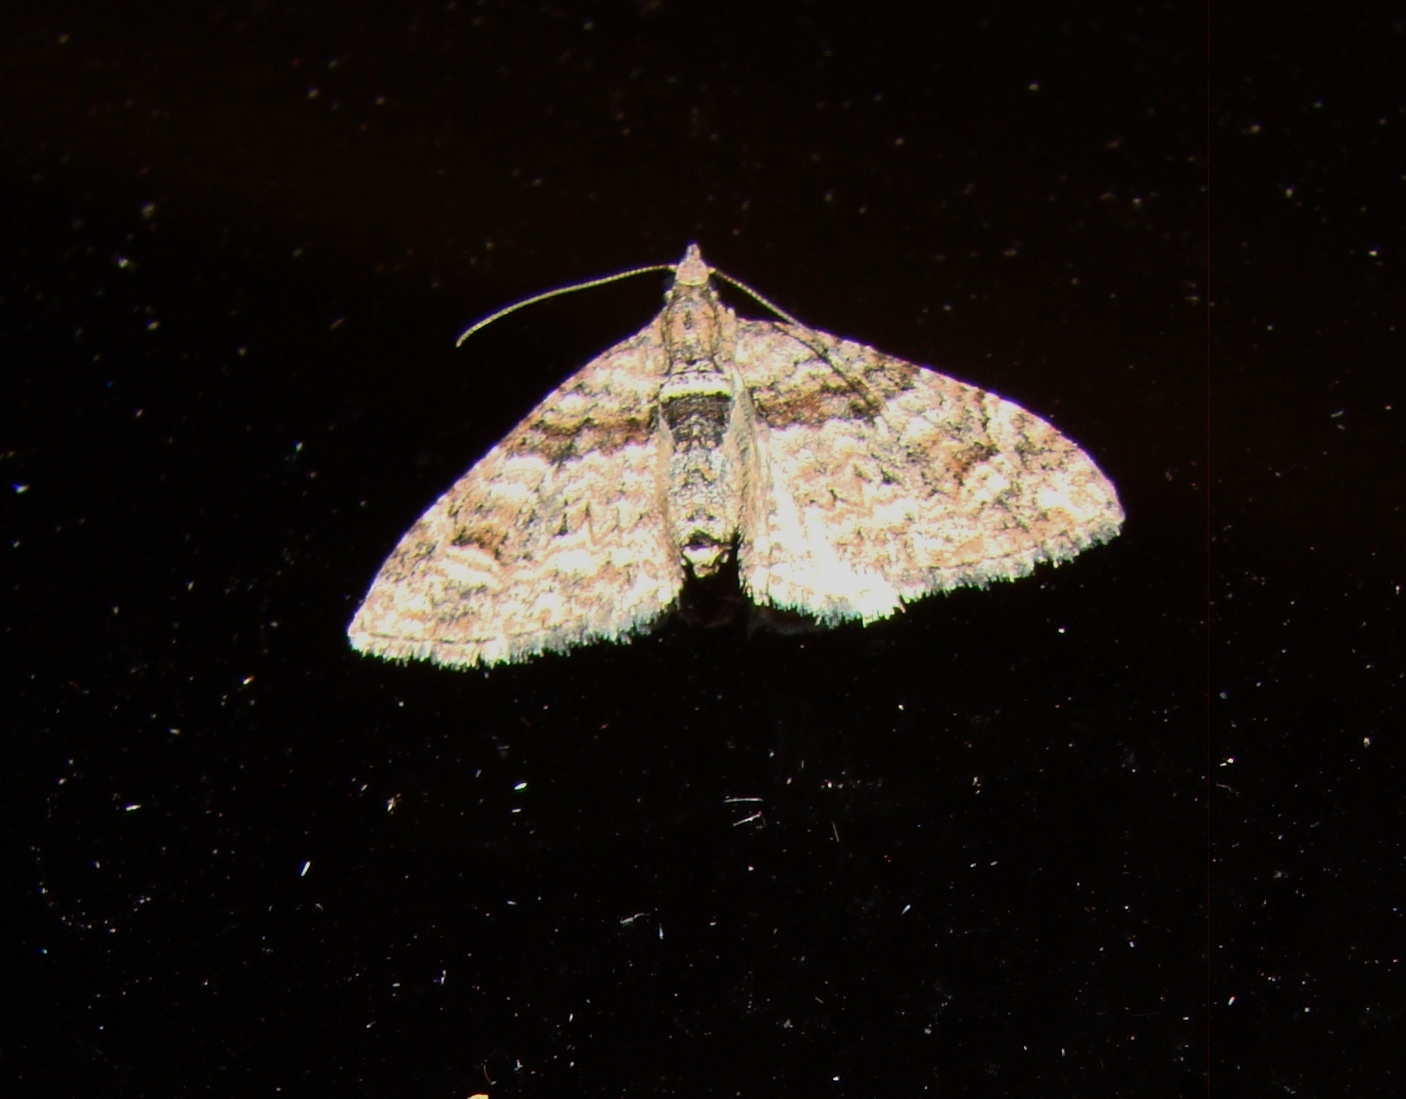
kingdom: Animalia
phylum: Arthropoda
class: Insecta
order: Lepidoptera
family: Geometridae
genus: Phrissogonus
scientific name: Phrissogonus laticostata
